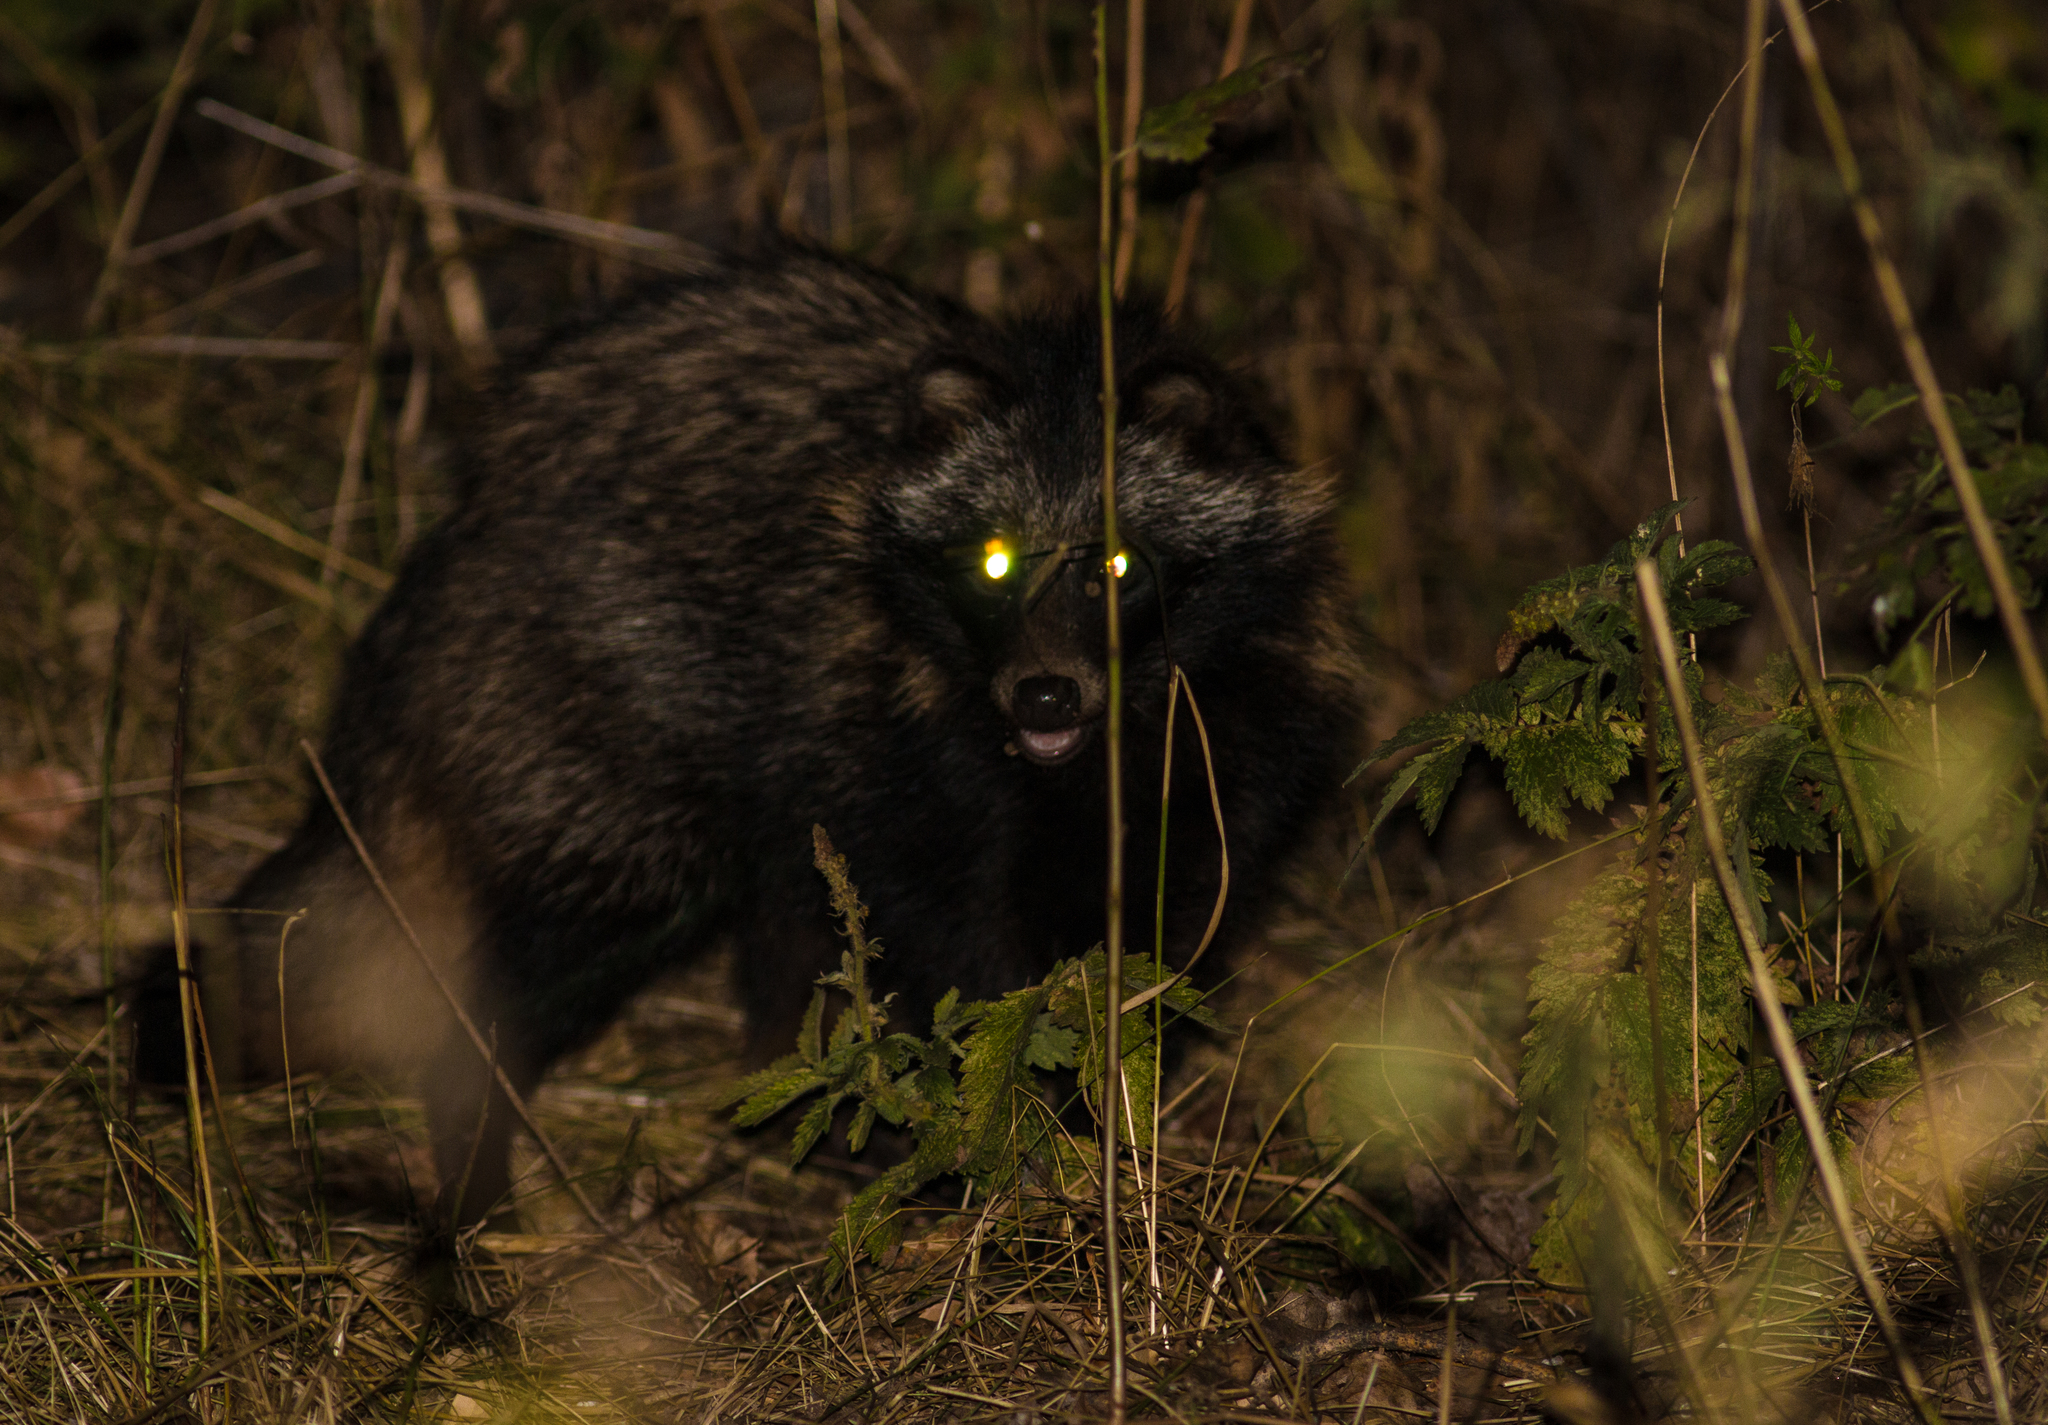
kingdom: Animalia
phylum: Chordata
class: Mammalia
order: Carnivora
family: Canidae
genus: Nyctereutes
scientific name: Nyctereutes procyonoides
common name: Raccoon dog
